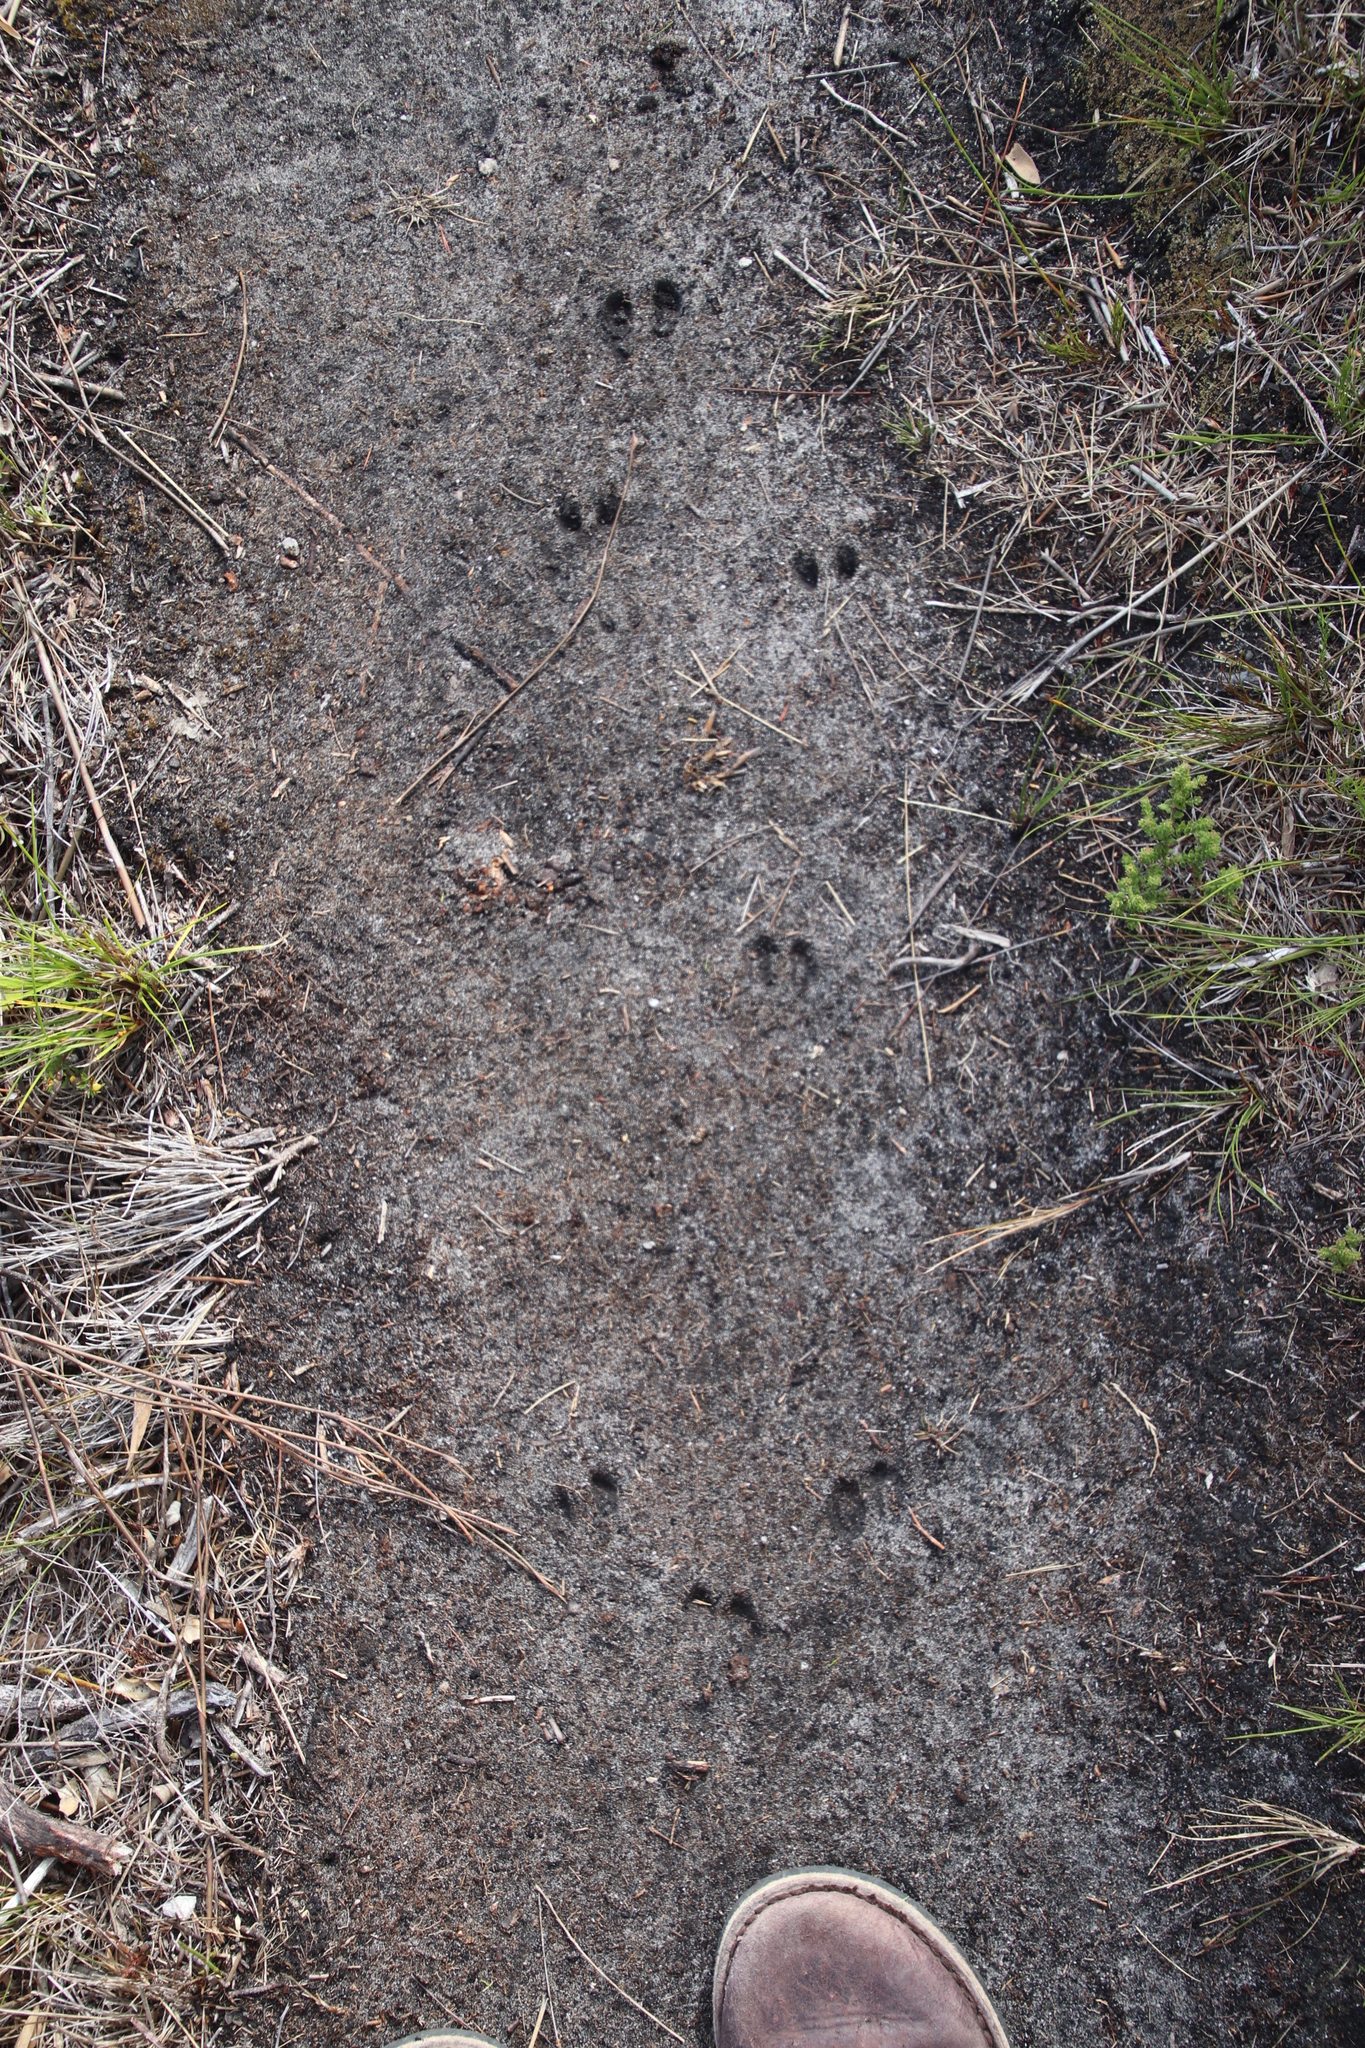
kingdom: Animalia
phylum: Chordata
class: Mammalia
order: Artiodactyla
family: Bovidae
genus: Oreotragus
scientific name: Oreotragus oreotragus
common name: Klipspringer
